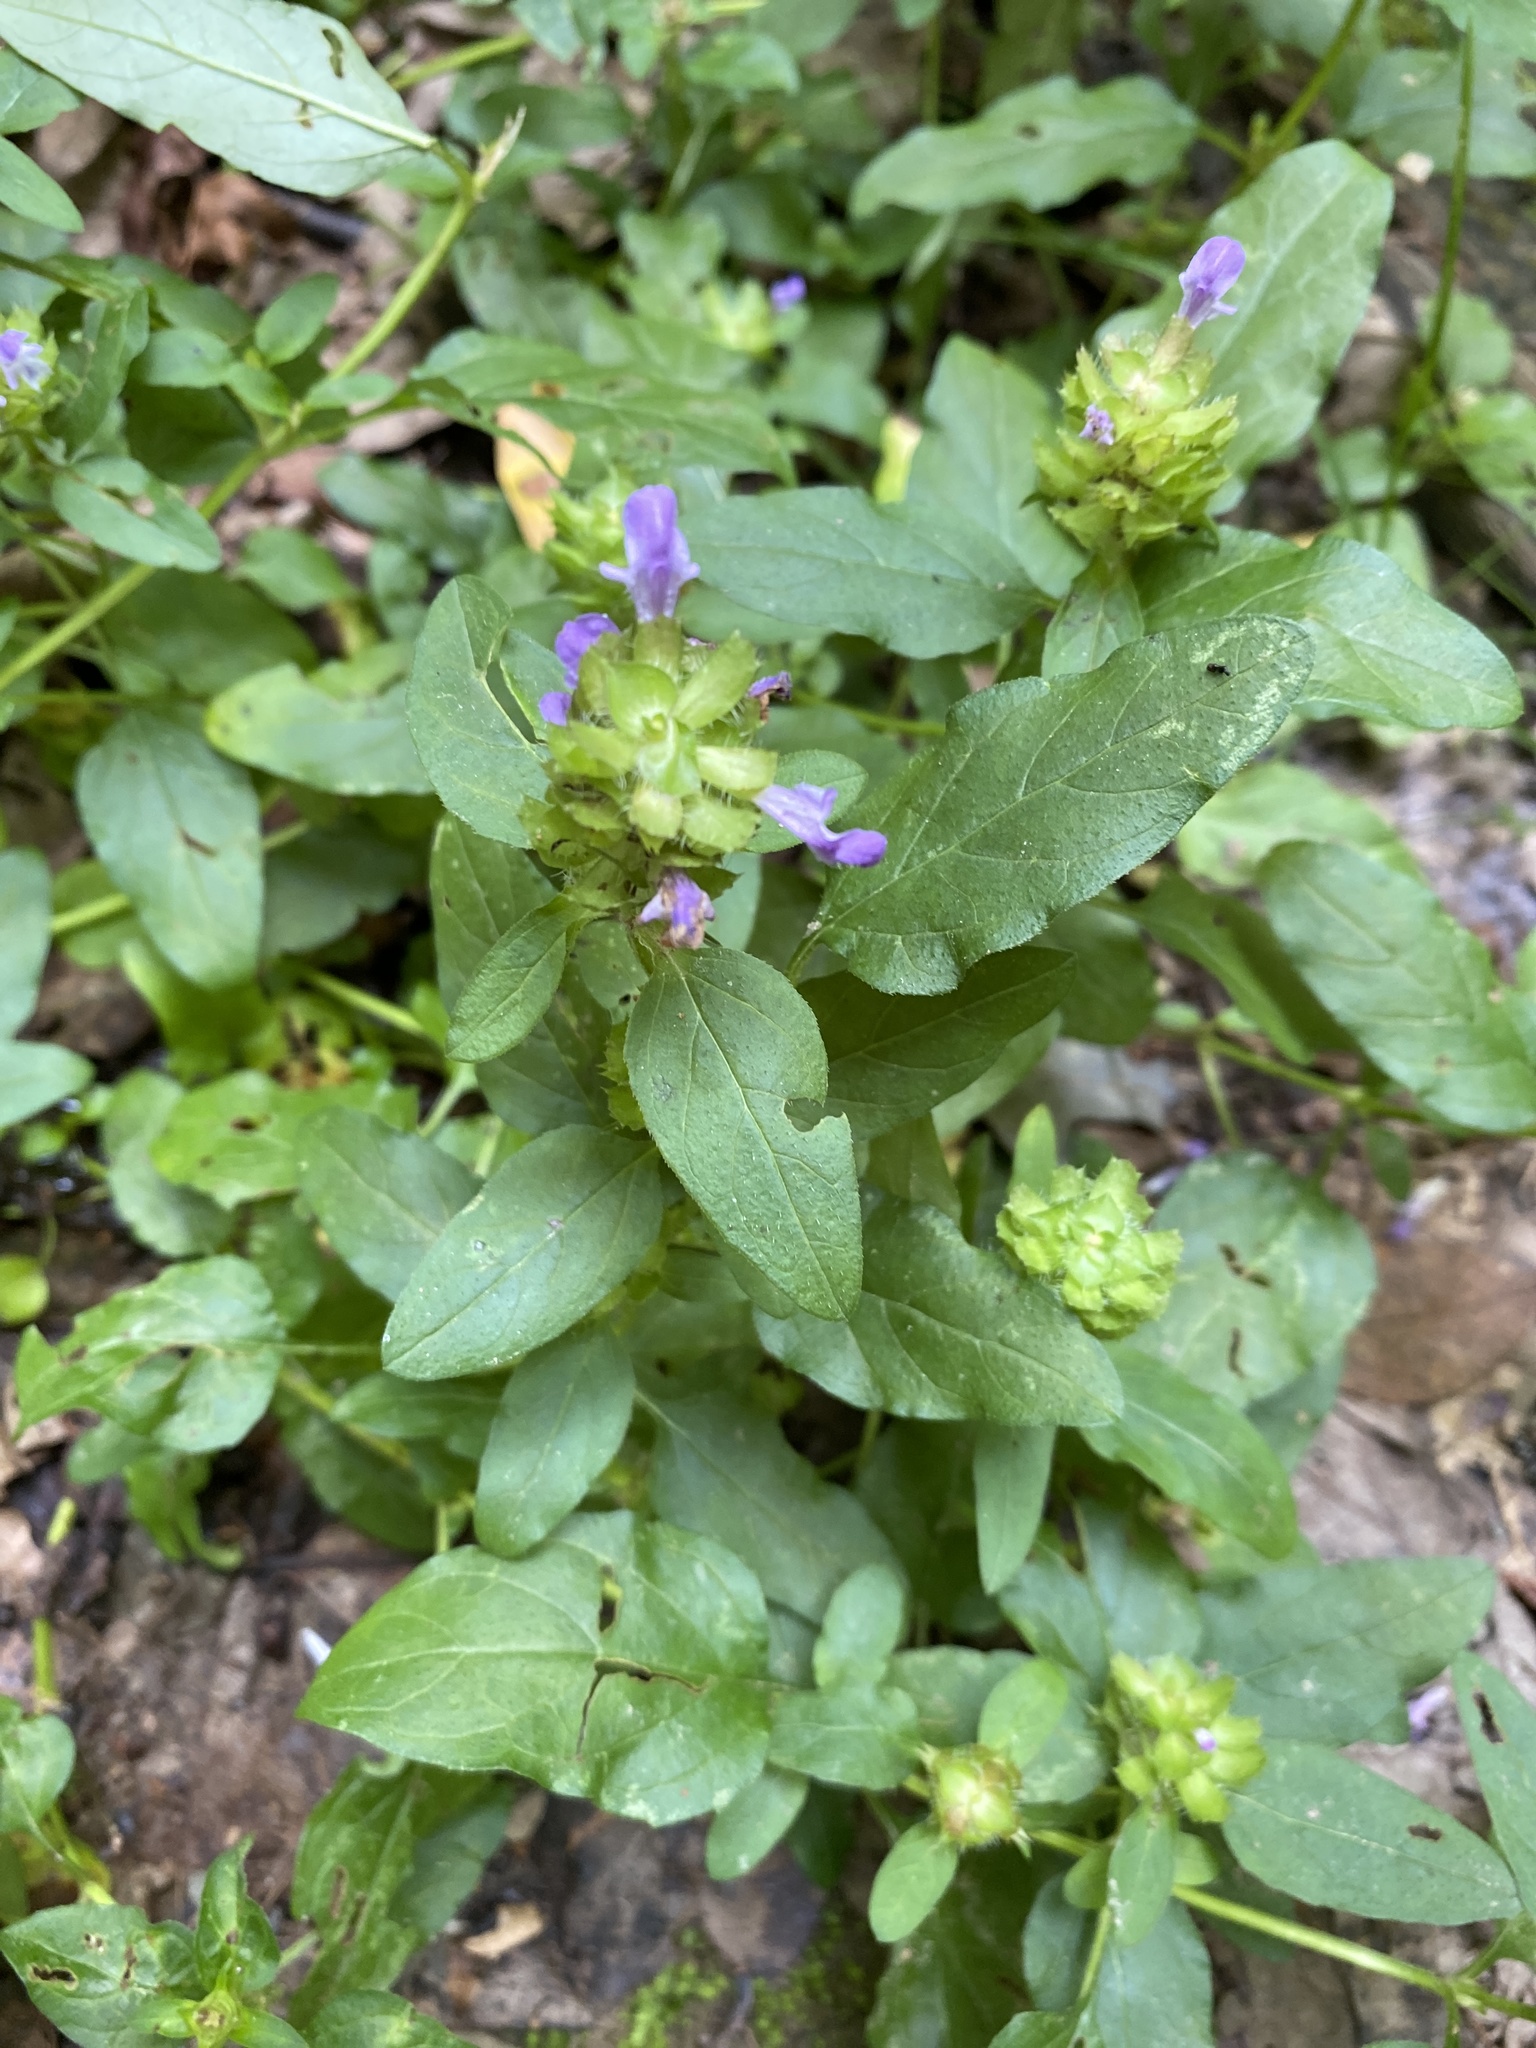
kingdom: Plantae
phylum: Tracheophyta
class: Magnoliopsida
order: Lamiales
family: Lamiaceae
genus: Prunella
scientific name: Prunella vulgaris
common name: Heal-all
